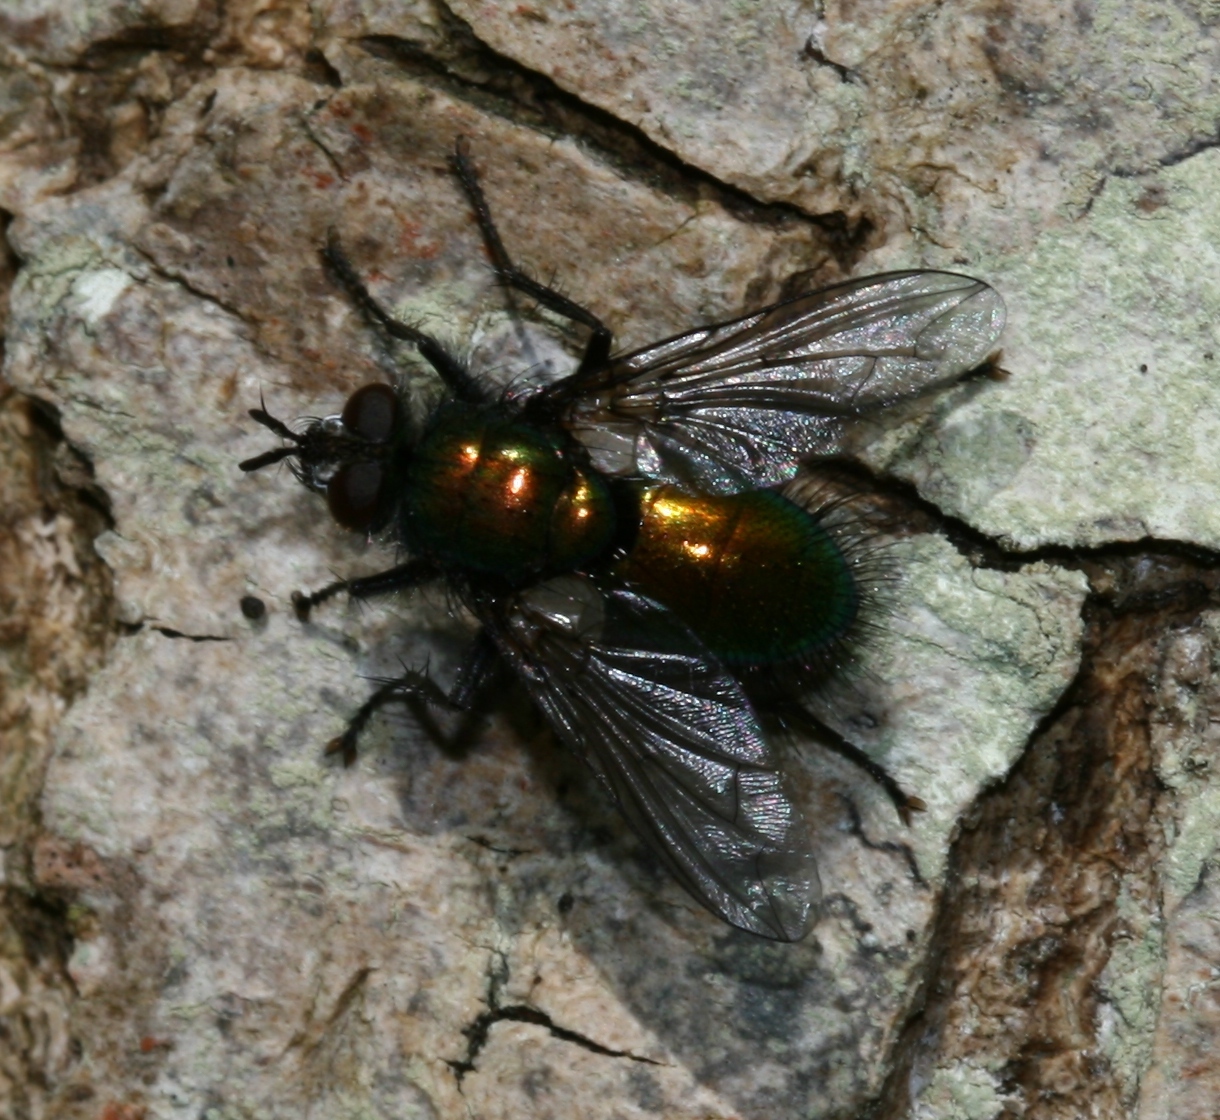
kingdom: Animalia
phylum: Arthropoda
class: Insecta
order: Diptera
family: Tachinidae
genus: Gymnocheta
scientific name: Gymnocheta viridis
